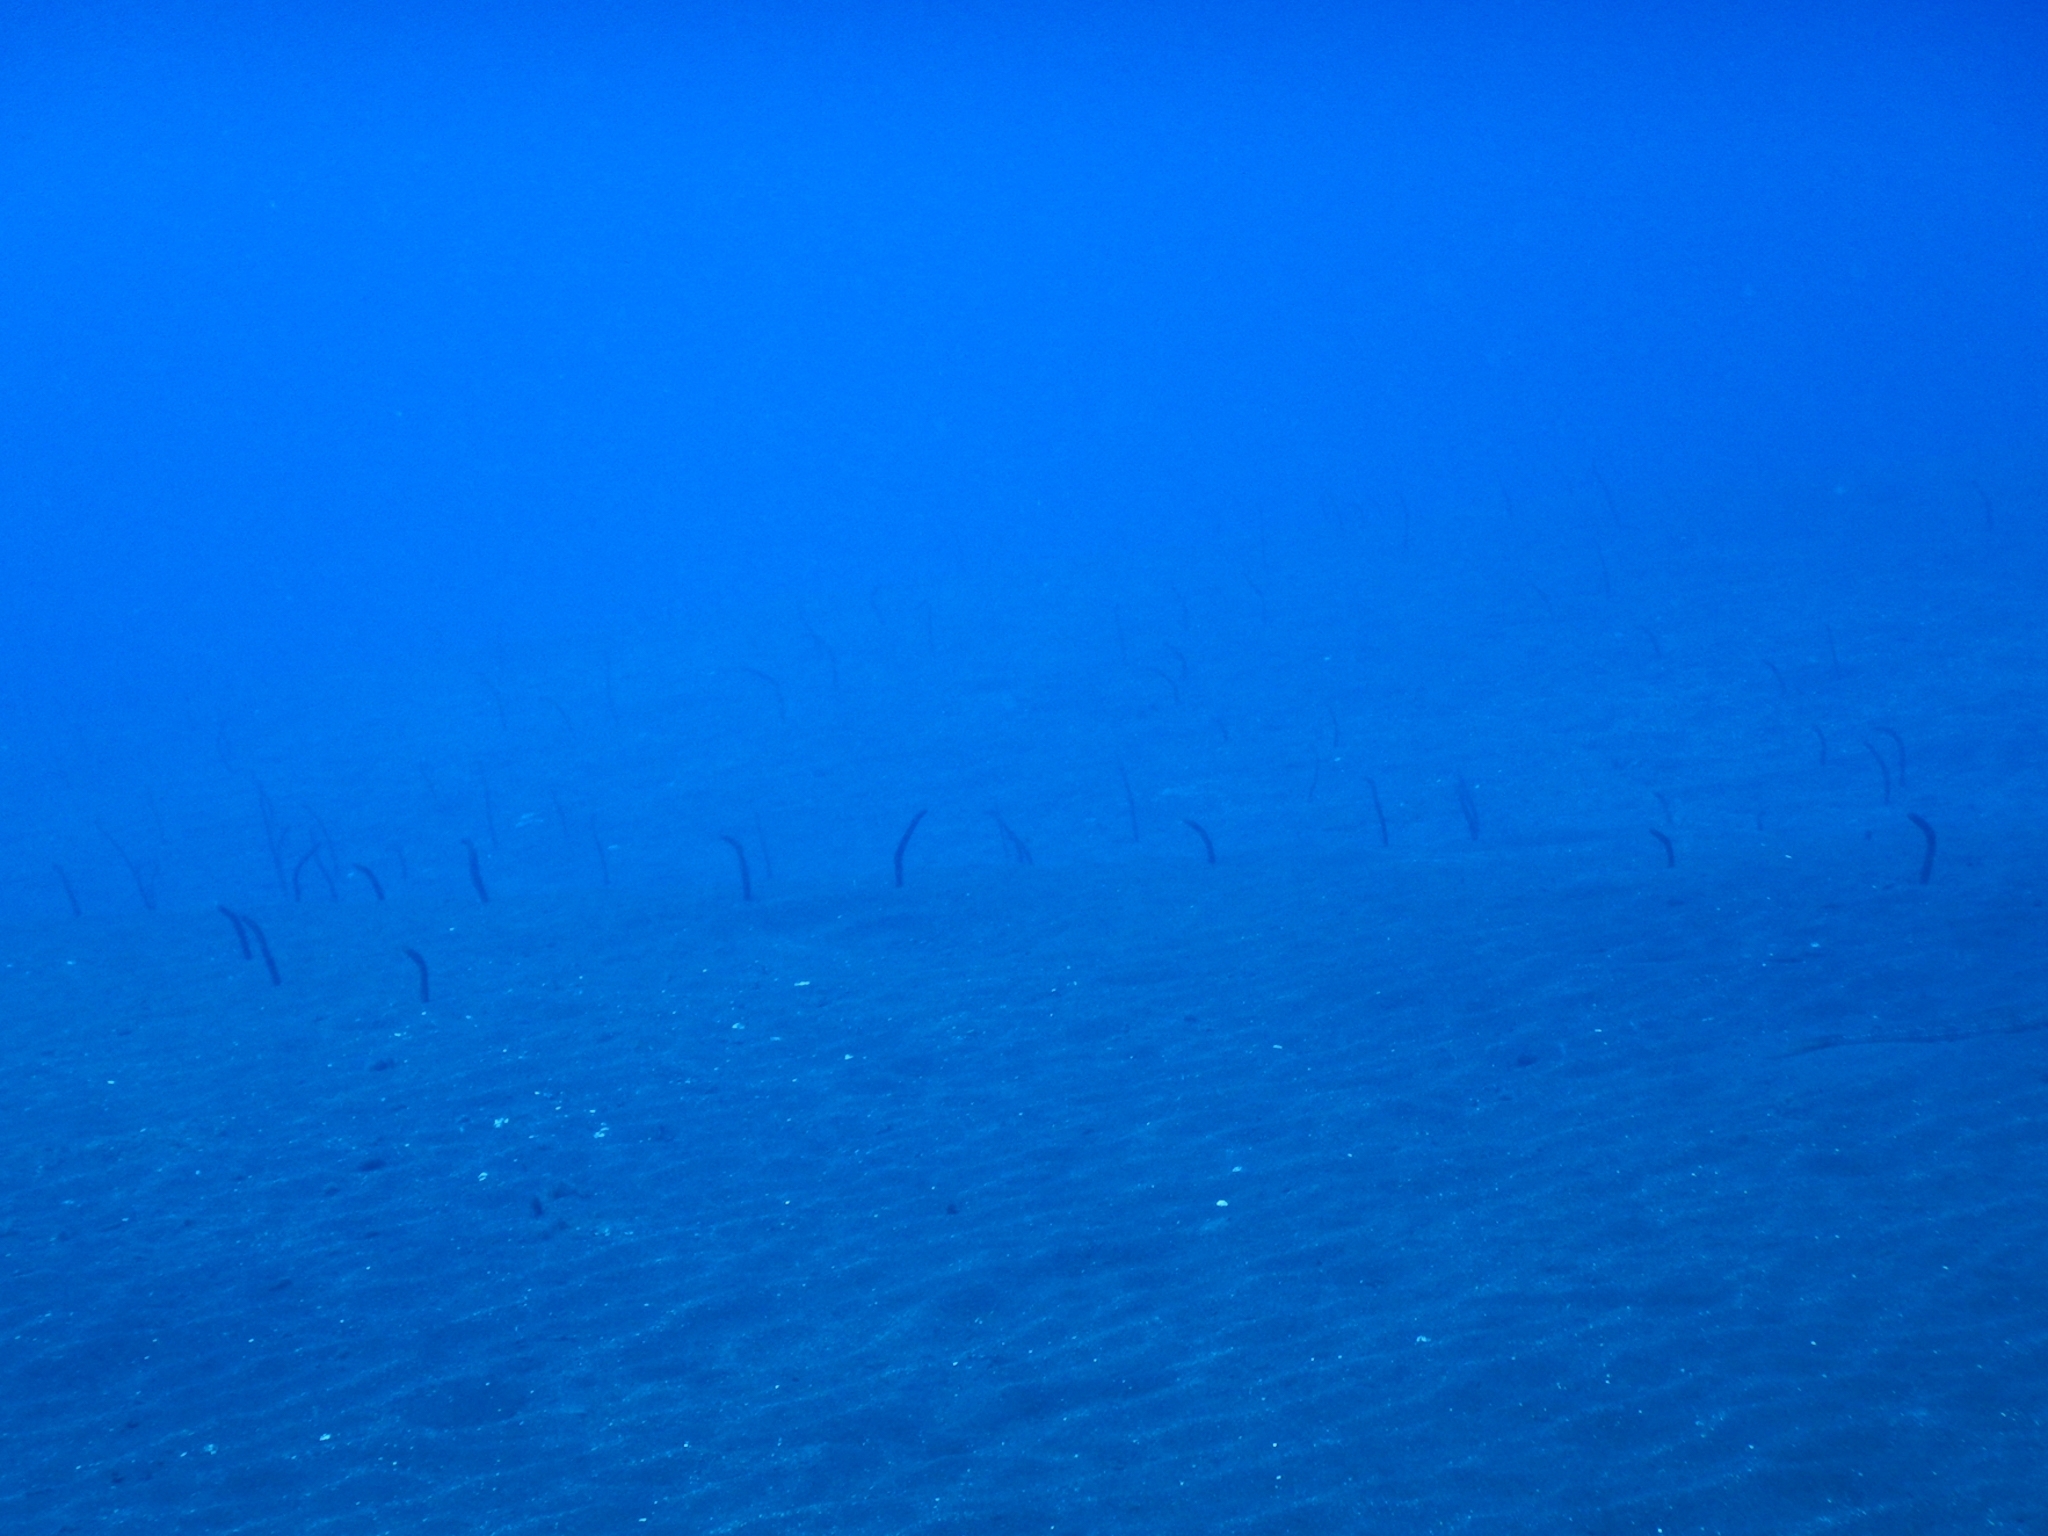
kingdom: Animalia
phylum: Chordata
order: Anguilliformes
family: Congridae
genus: Heteroconger
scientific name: Heteroconger longissimus
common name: Garden eel
